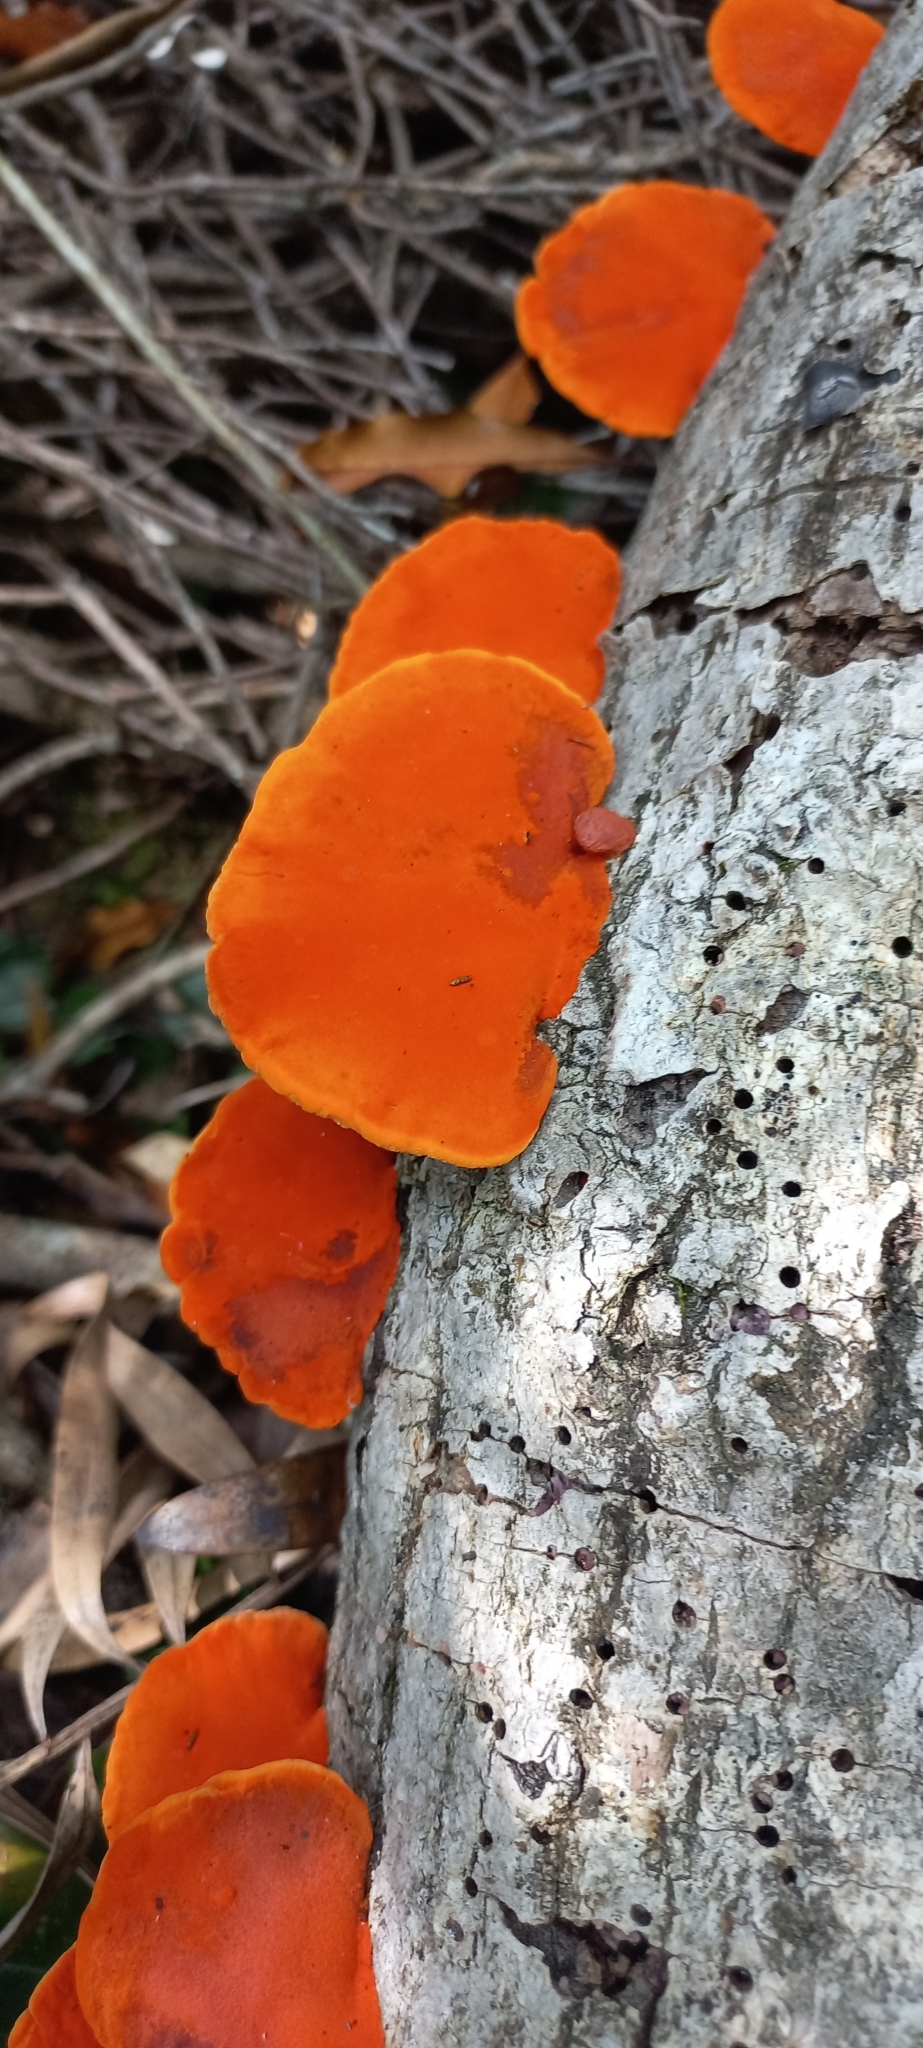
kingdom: Fungi
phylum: Basidiomycota
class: Agaricomycetes
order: Polyporales
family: Polyporaceae
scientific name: Polyporaceae
